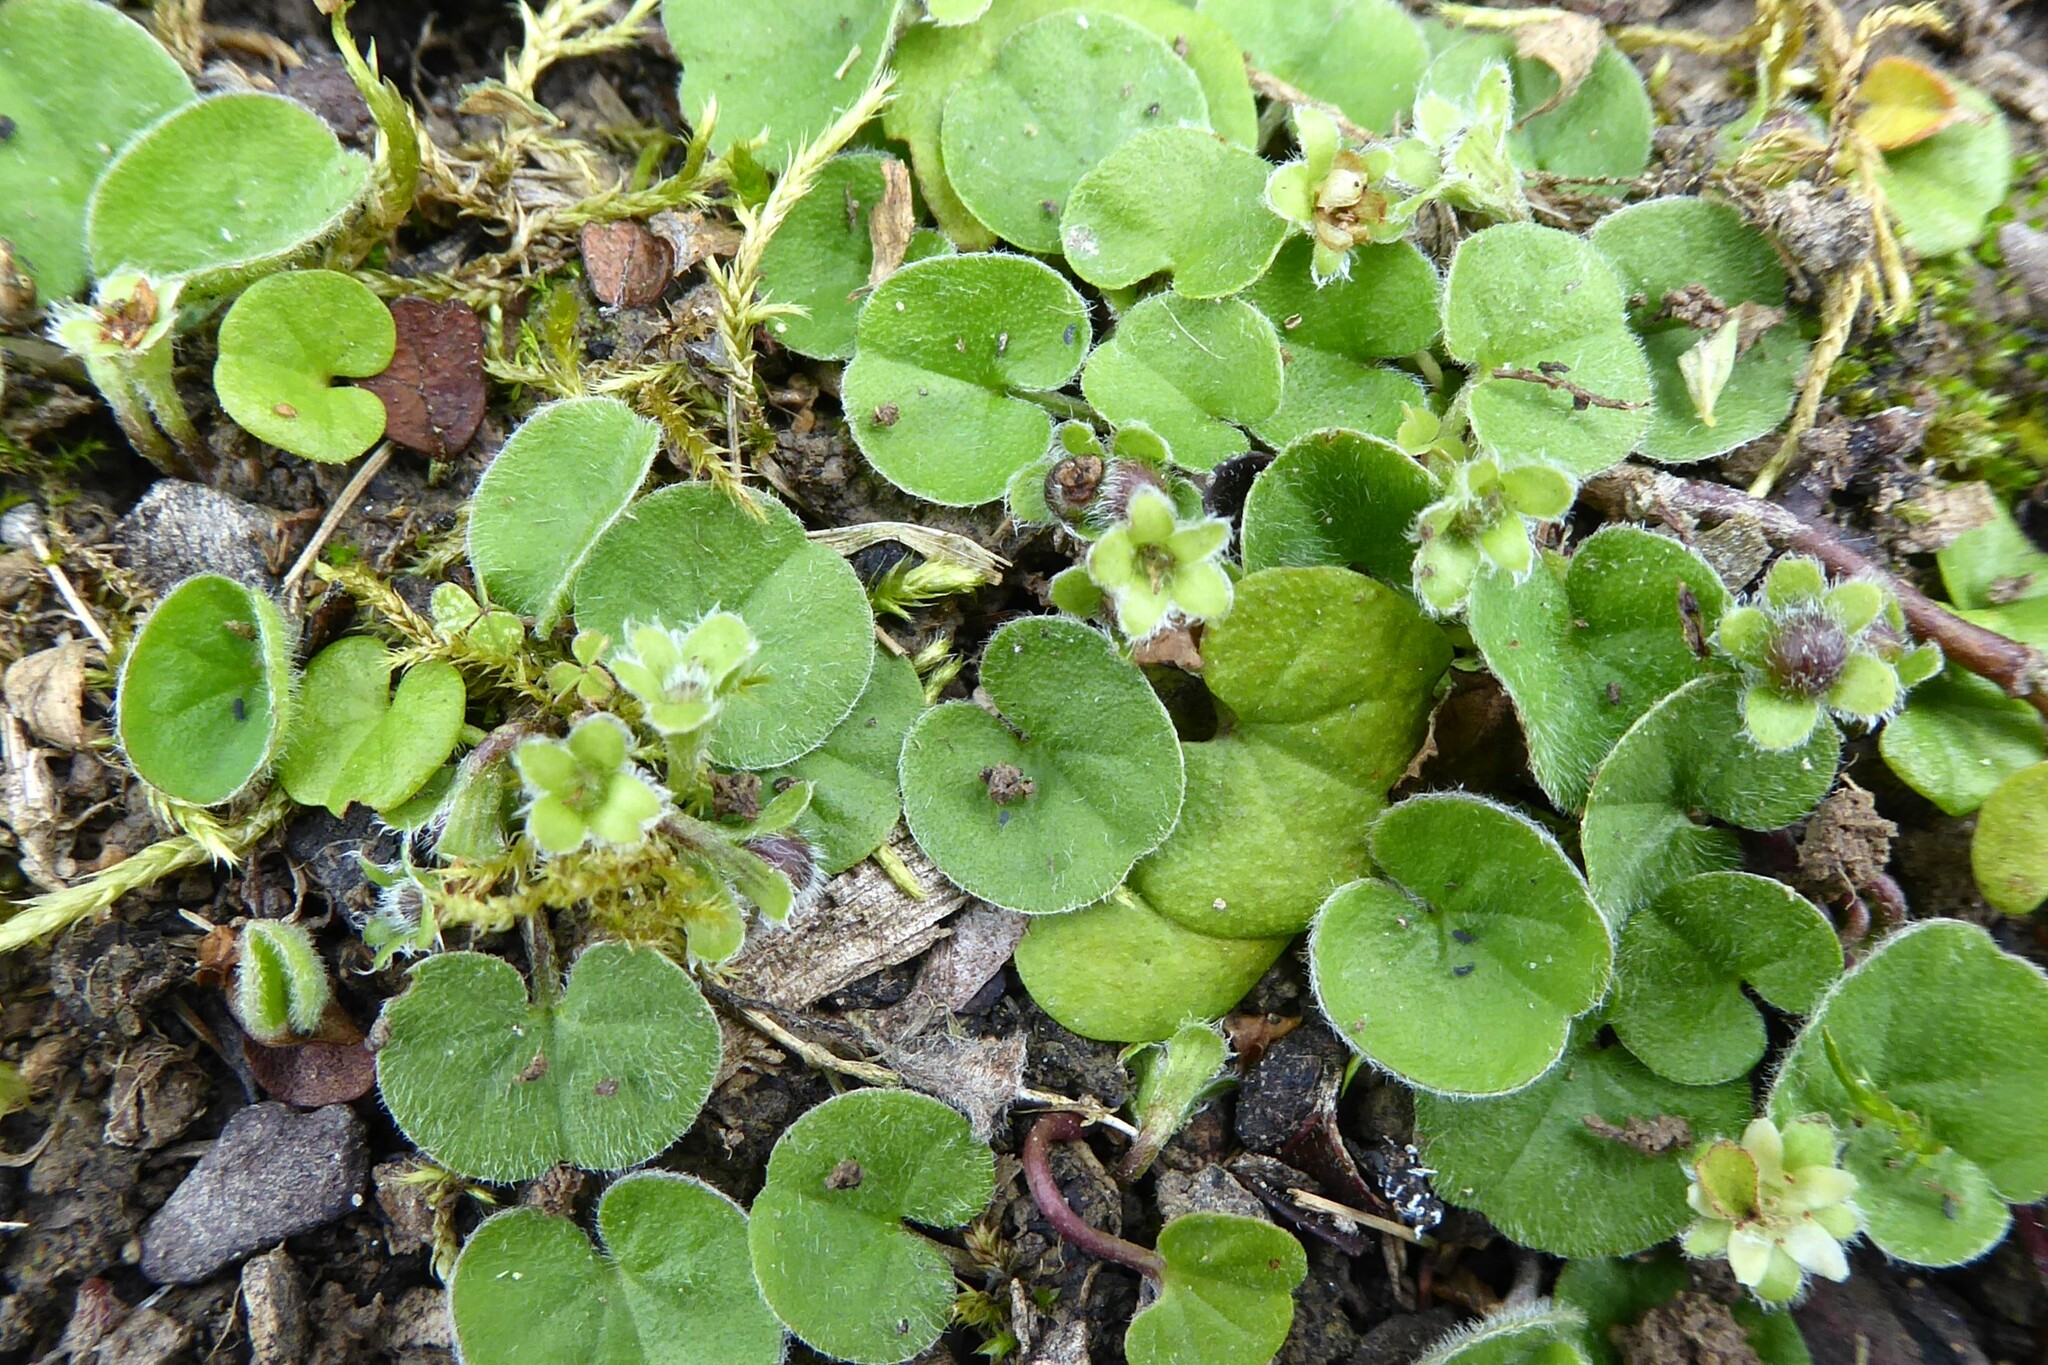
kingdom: Plantae
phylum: Tracheophyta
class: Magnoliopsida
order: Solanales
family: Convolvulaceae
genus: Dichondra
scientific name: Dichondra repens
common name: Kidneyweed
